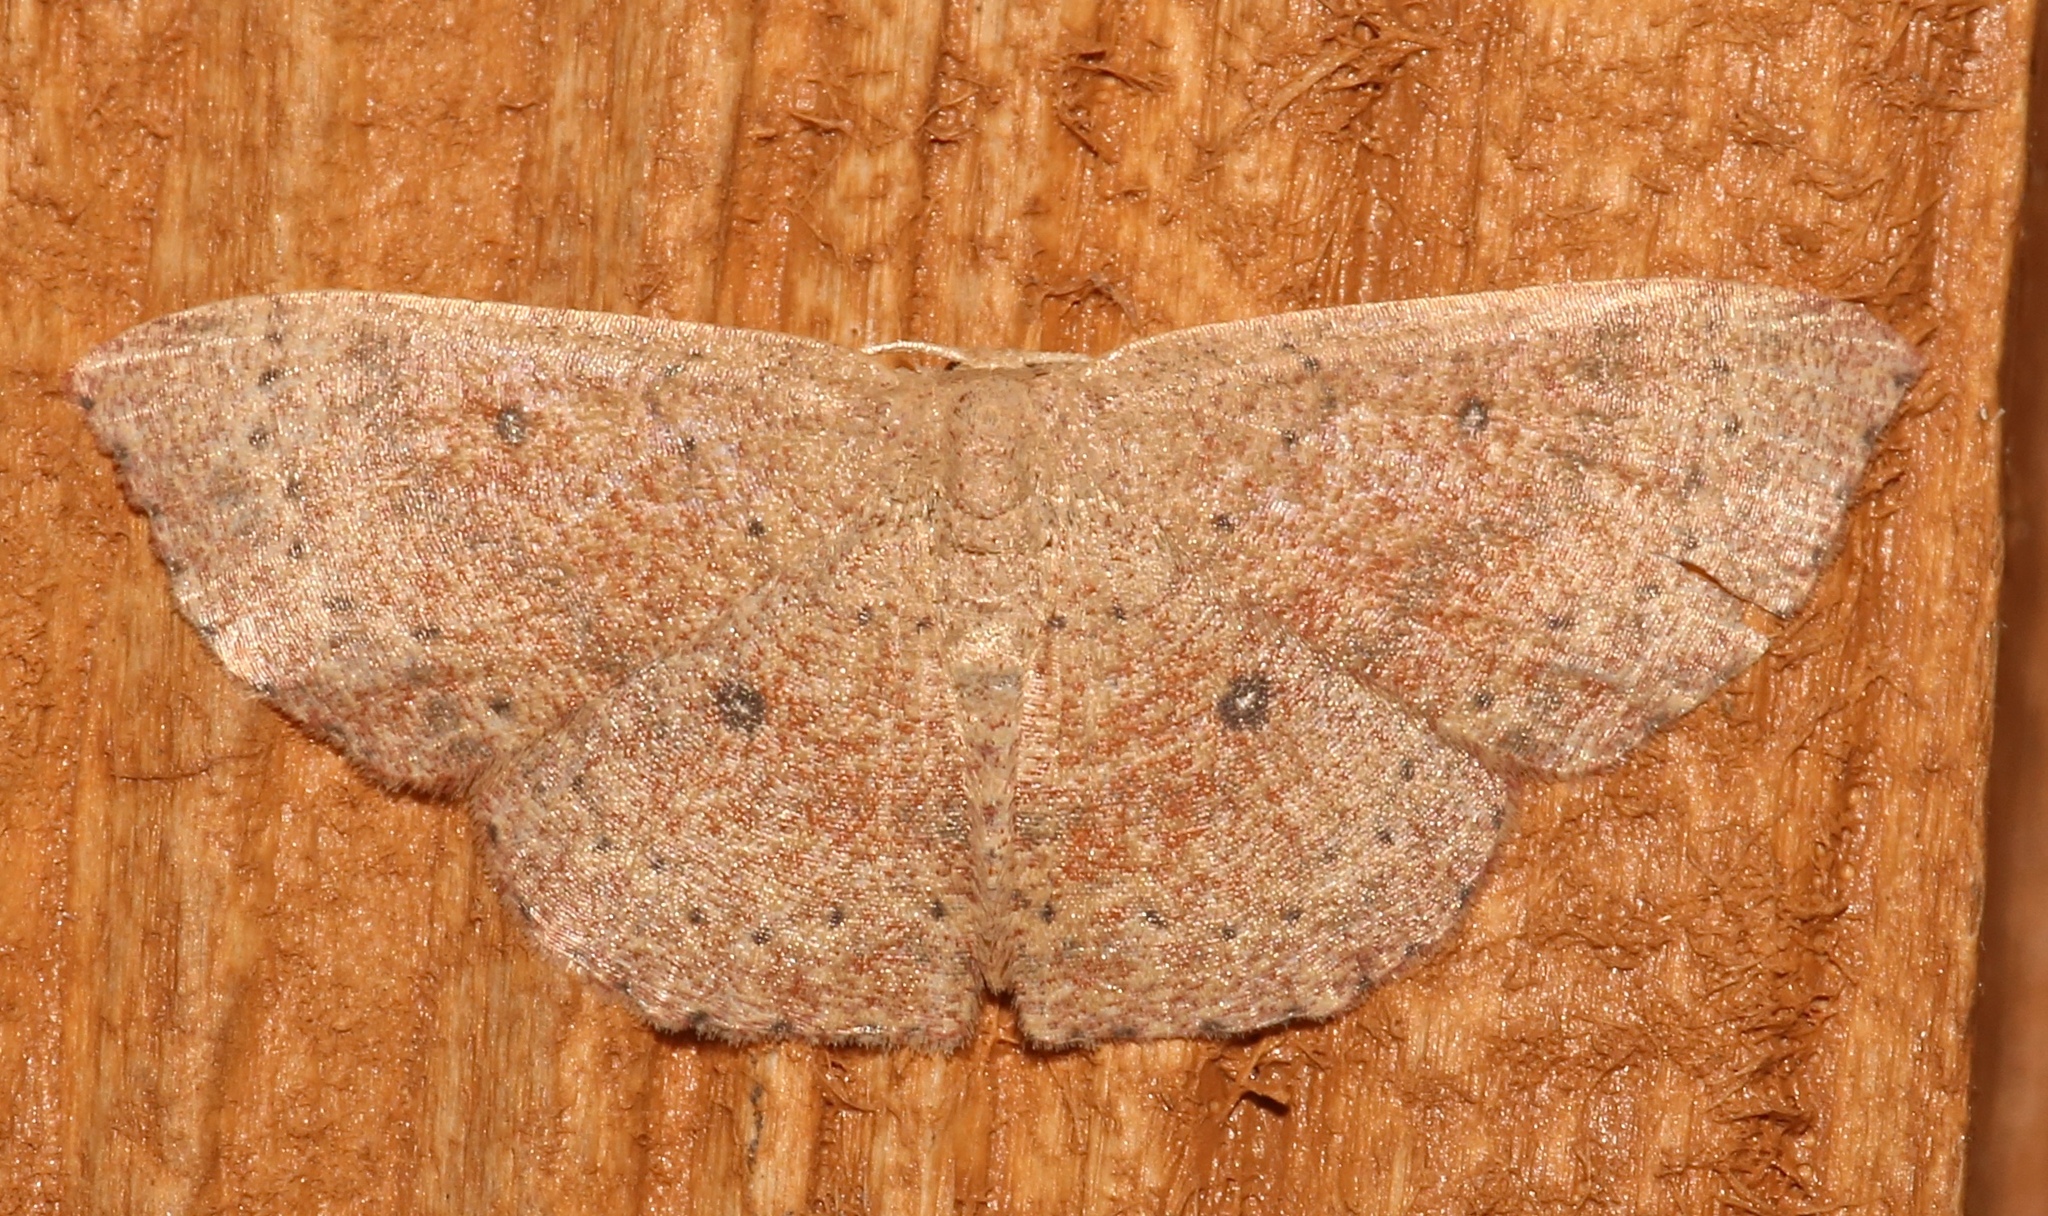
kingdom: Animalia
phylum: Arthropoda
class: Insecta
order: Lepidoptera
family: Geometridae
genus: Cyclophora
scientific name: Cyclophora packardi
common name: Packard's wave
